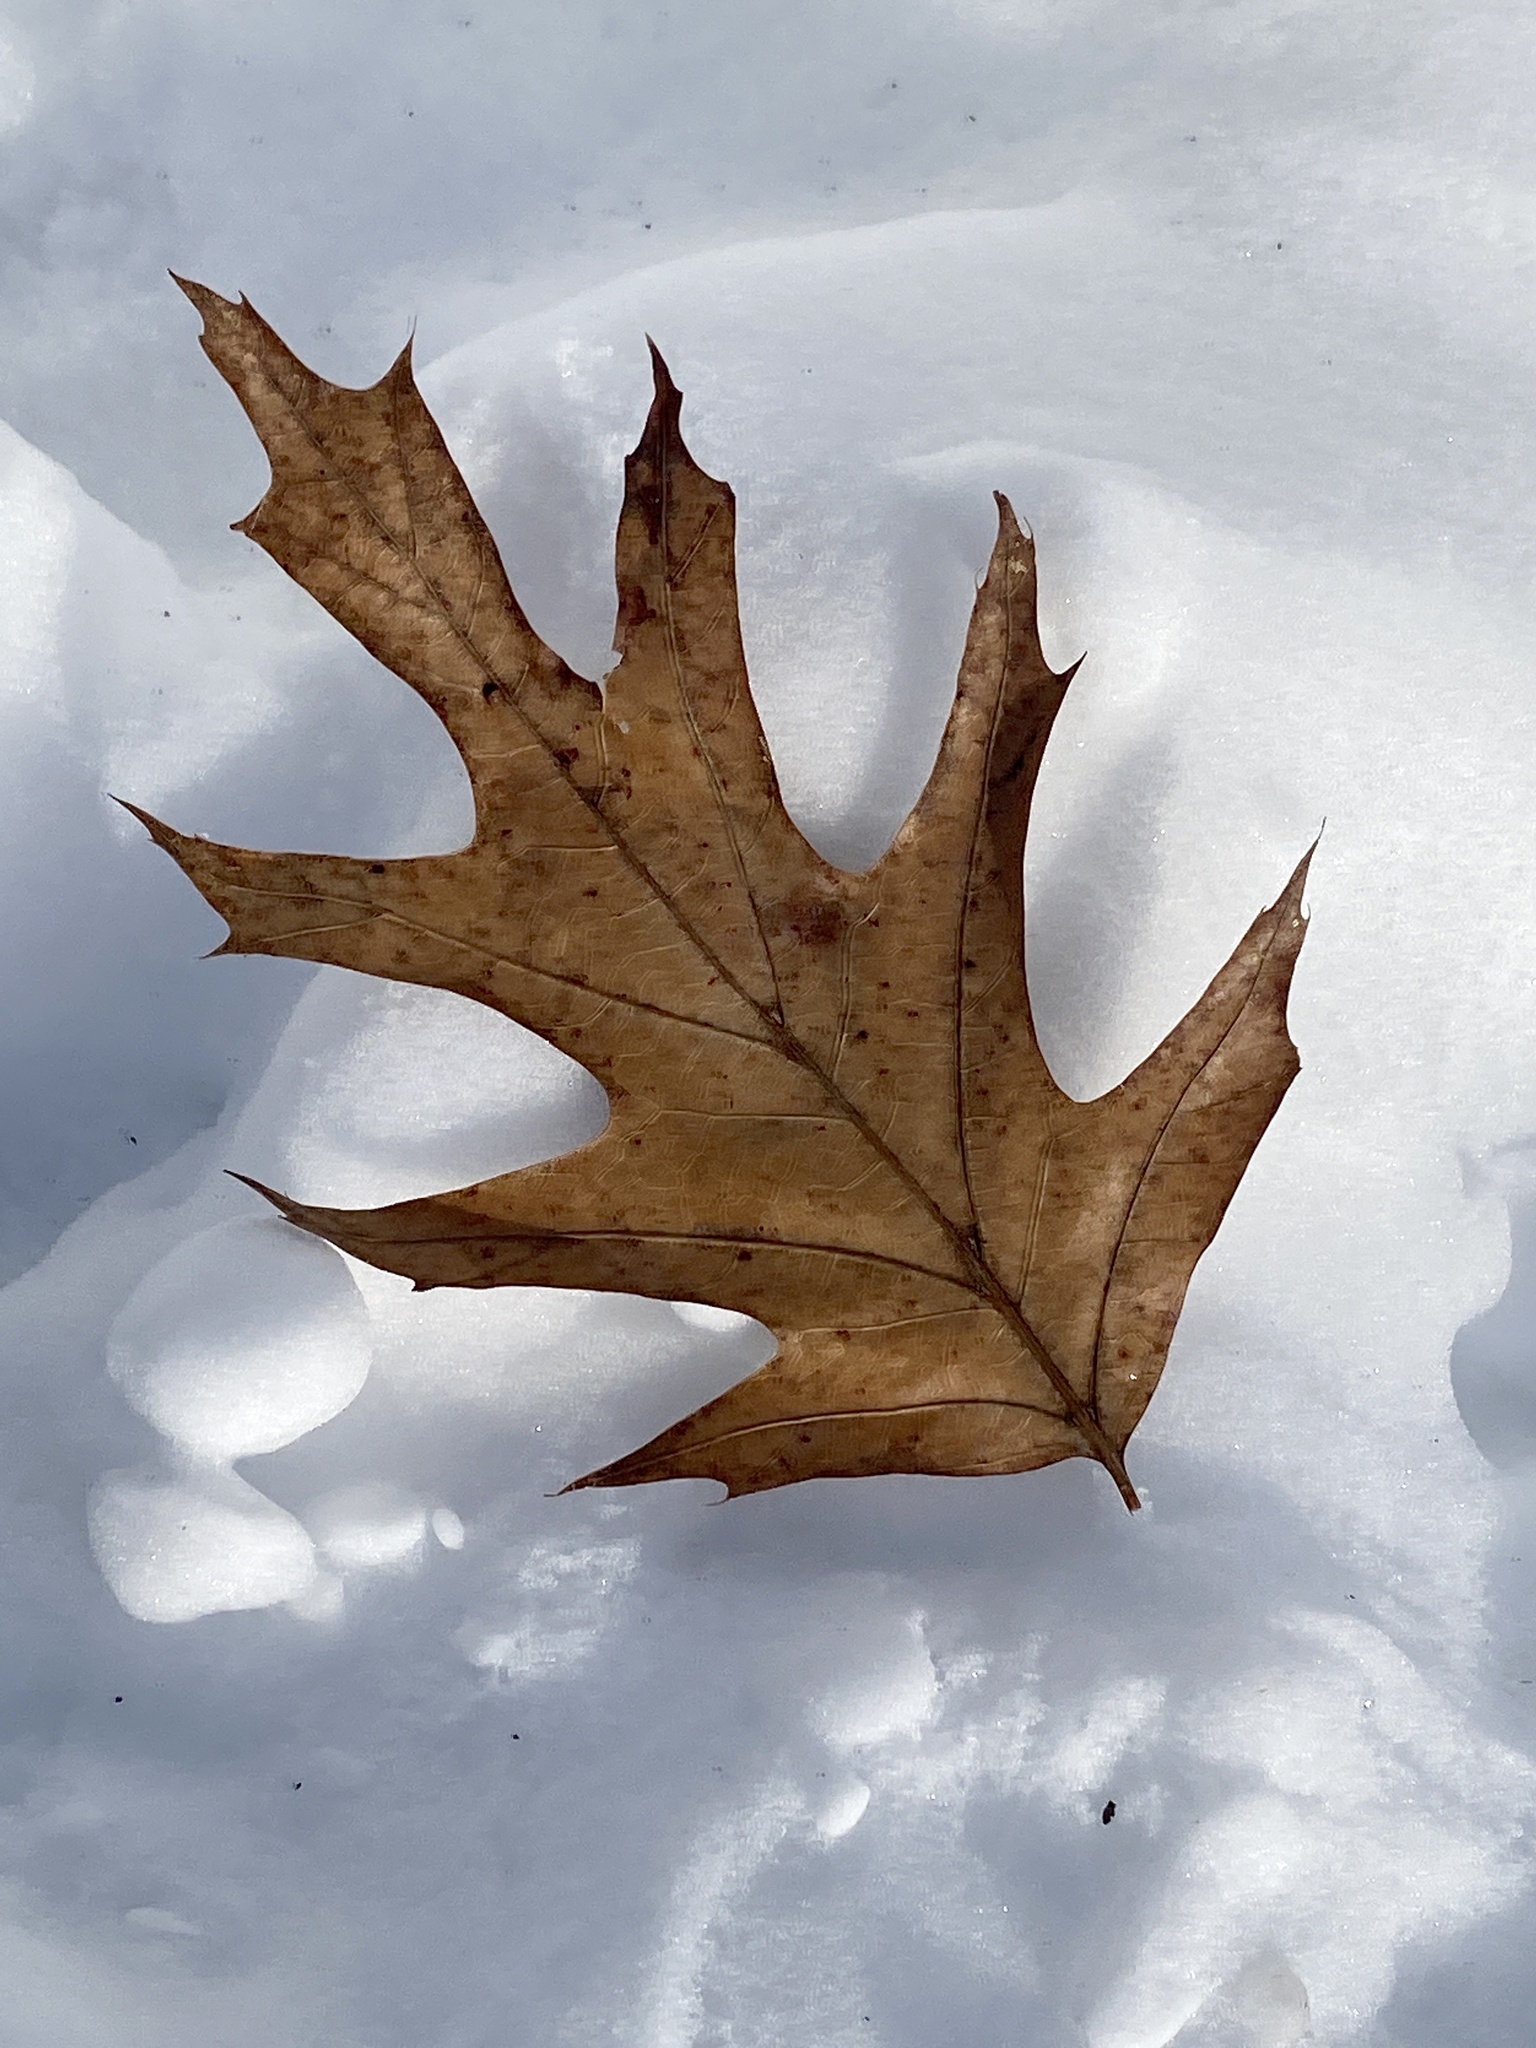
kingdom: Plantae
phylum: Tracheophyta
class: Magnoliopsida
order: Fagales
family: Fagaceae
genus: Quercus
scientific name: Quercus
